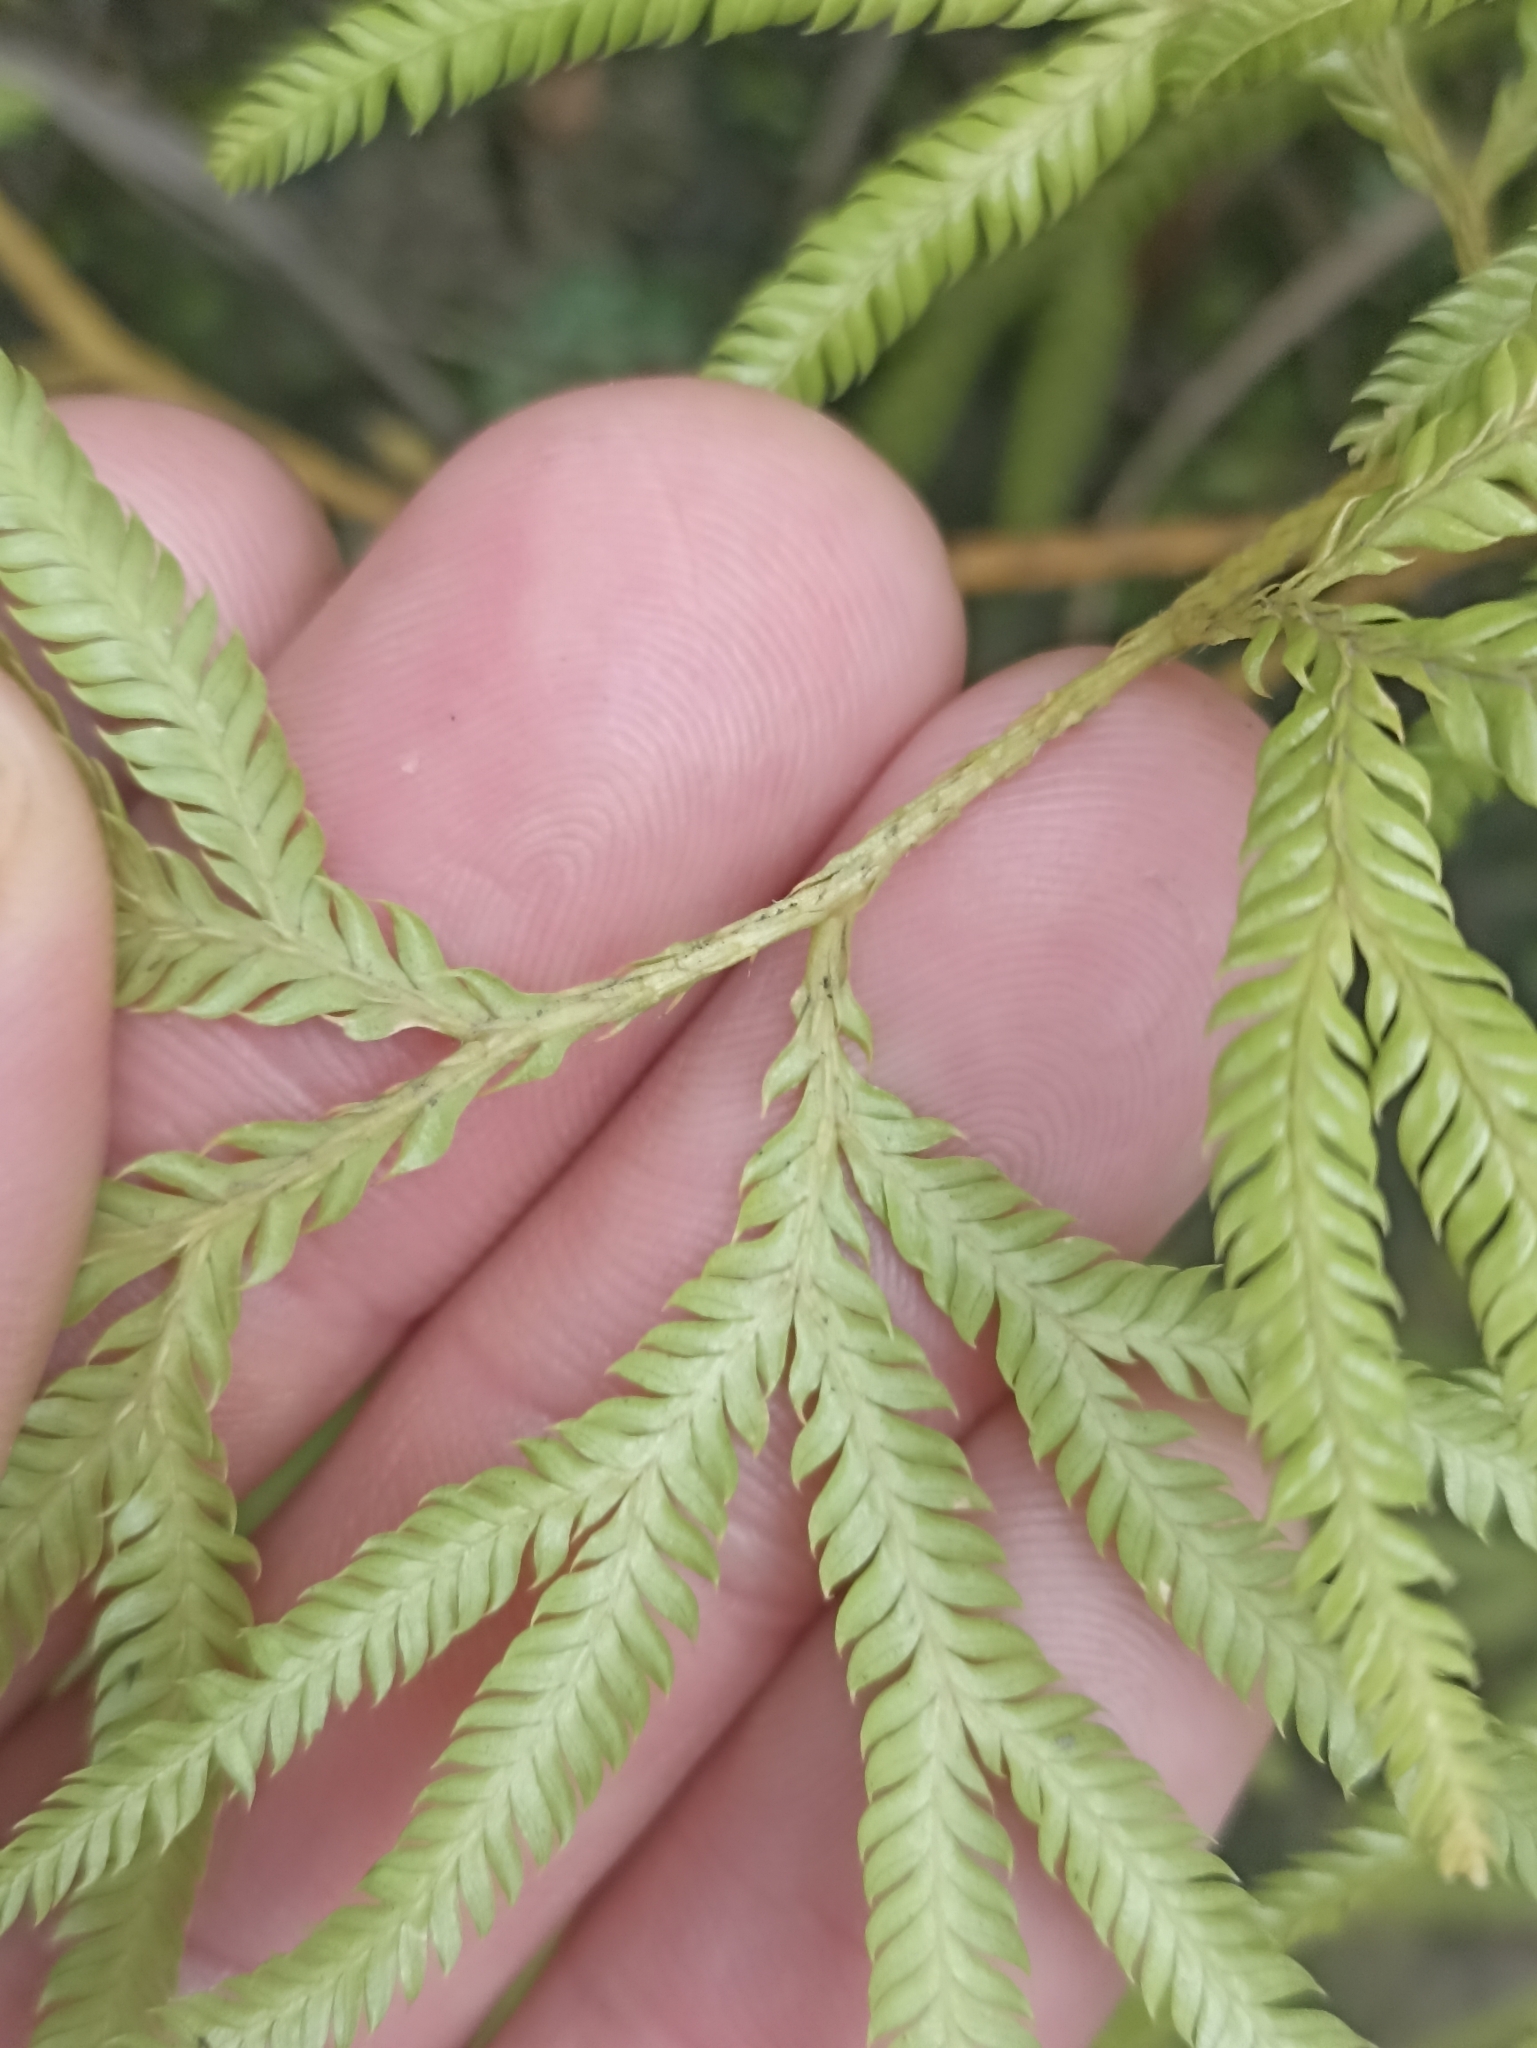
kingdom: Plantae
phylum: Tracheophyta
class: Lycopodiopsida
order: Lycopodiales
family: Lycopodiaceae
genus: Lycopodium
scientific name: Lycopodium volubile
